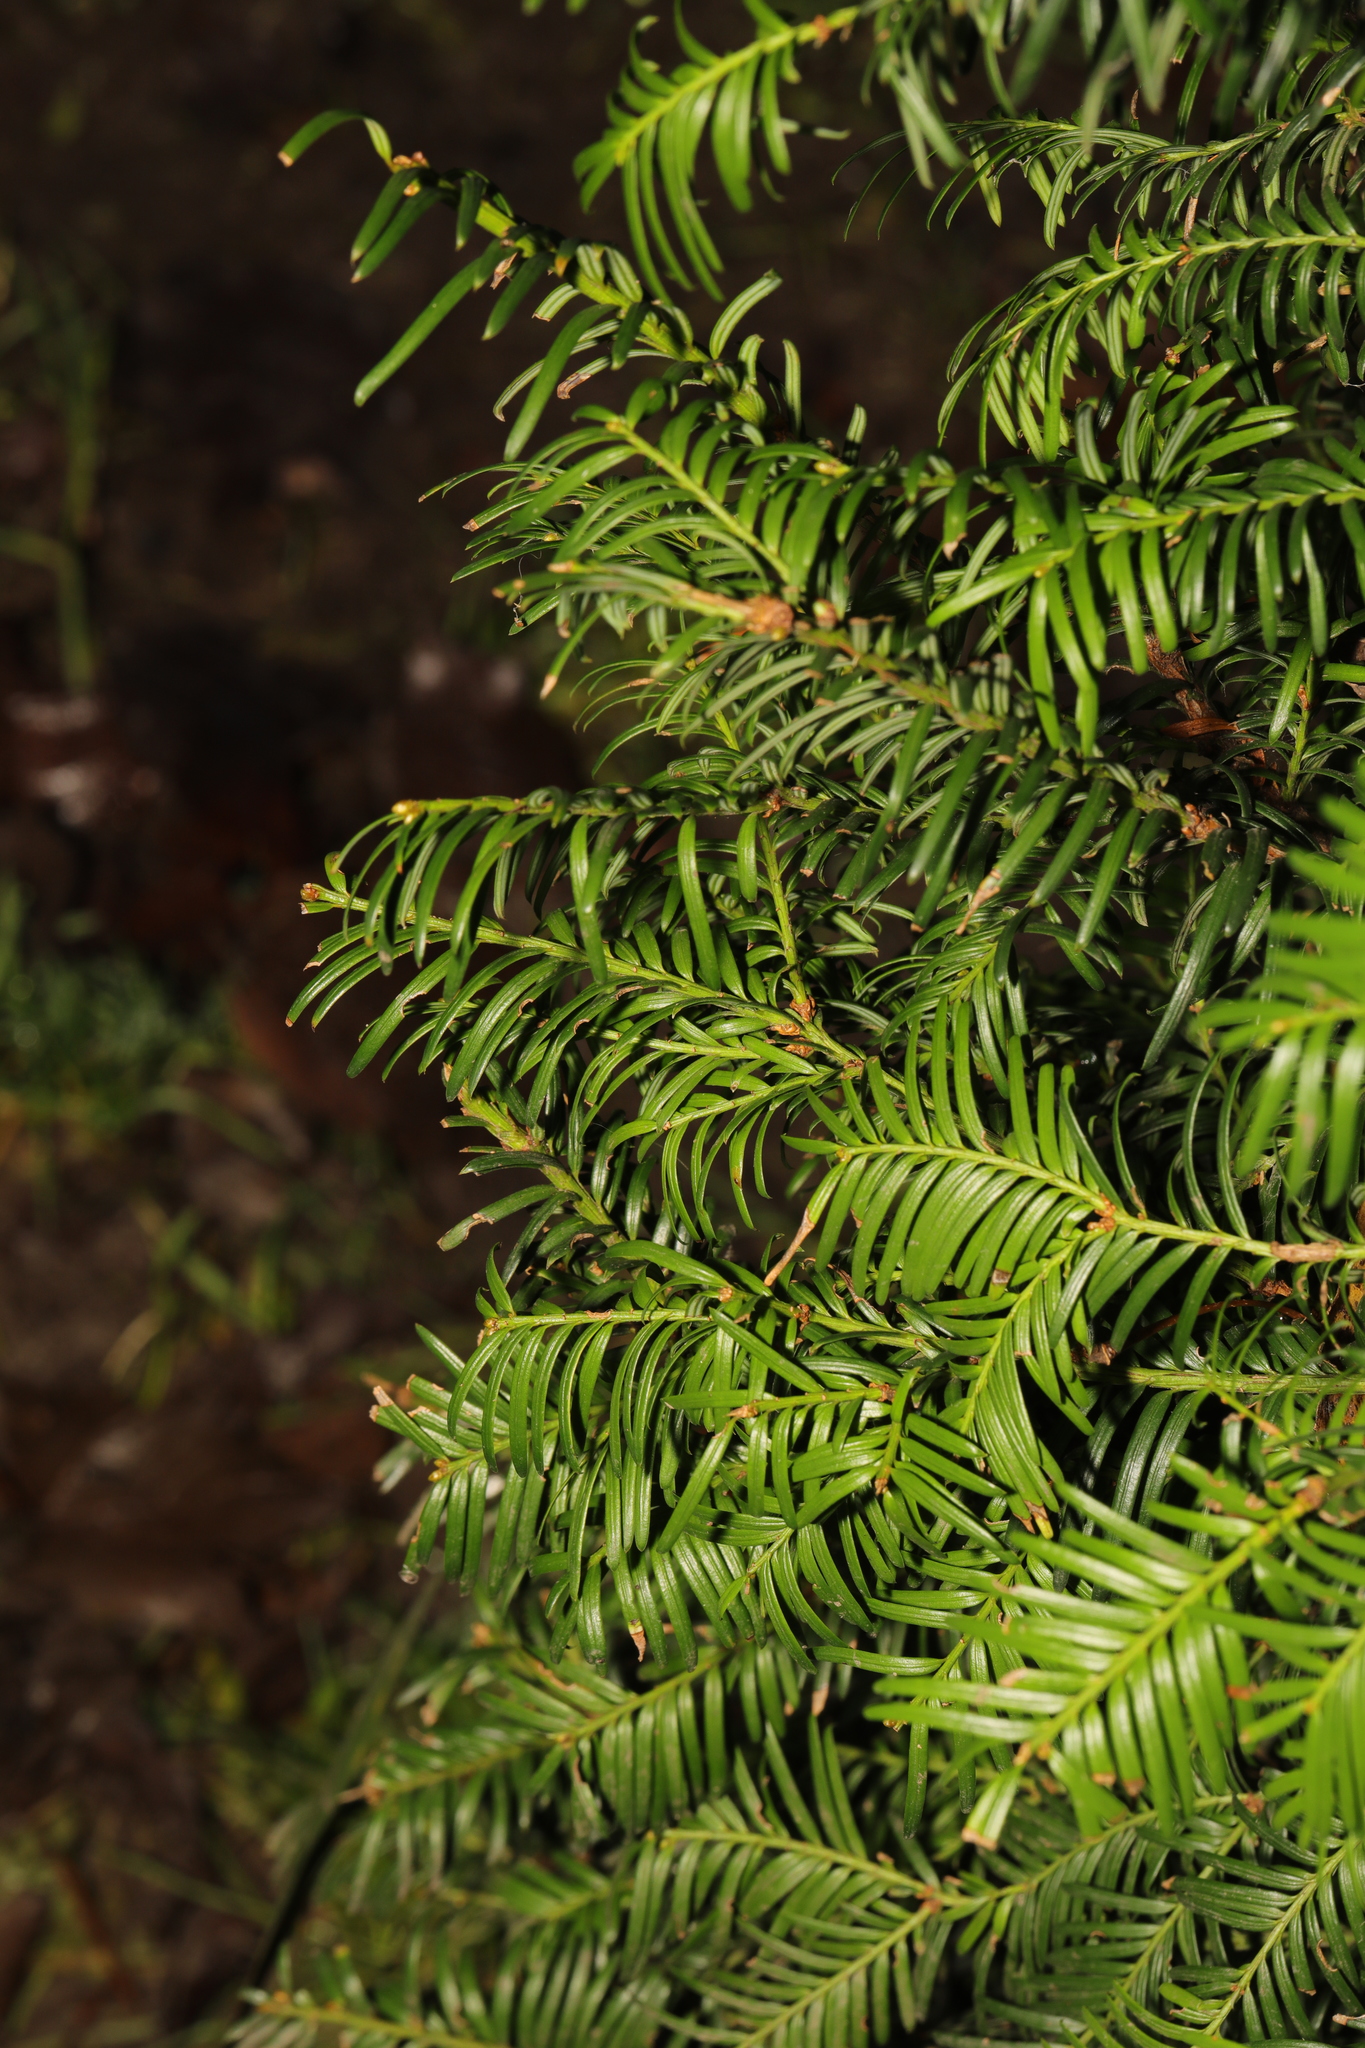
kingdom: Plantae
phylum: Tracheophyta
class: Pinopsida
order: Pinales
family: Taxaceae
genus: Taxus
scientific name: Taxus baccata
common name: Yew
